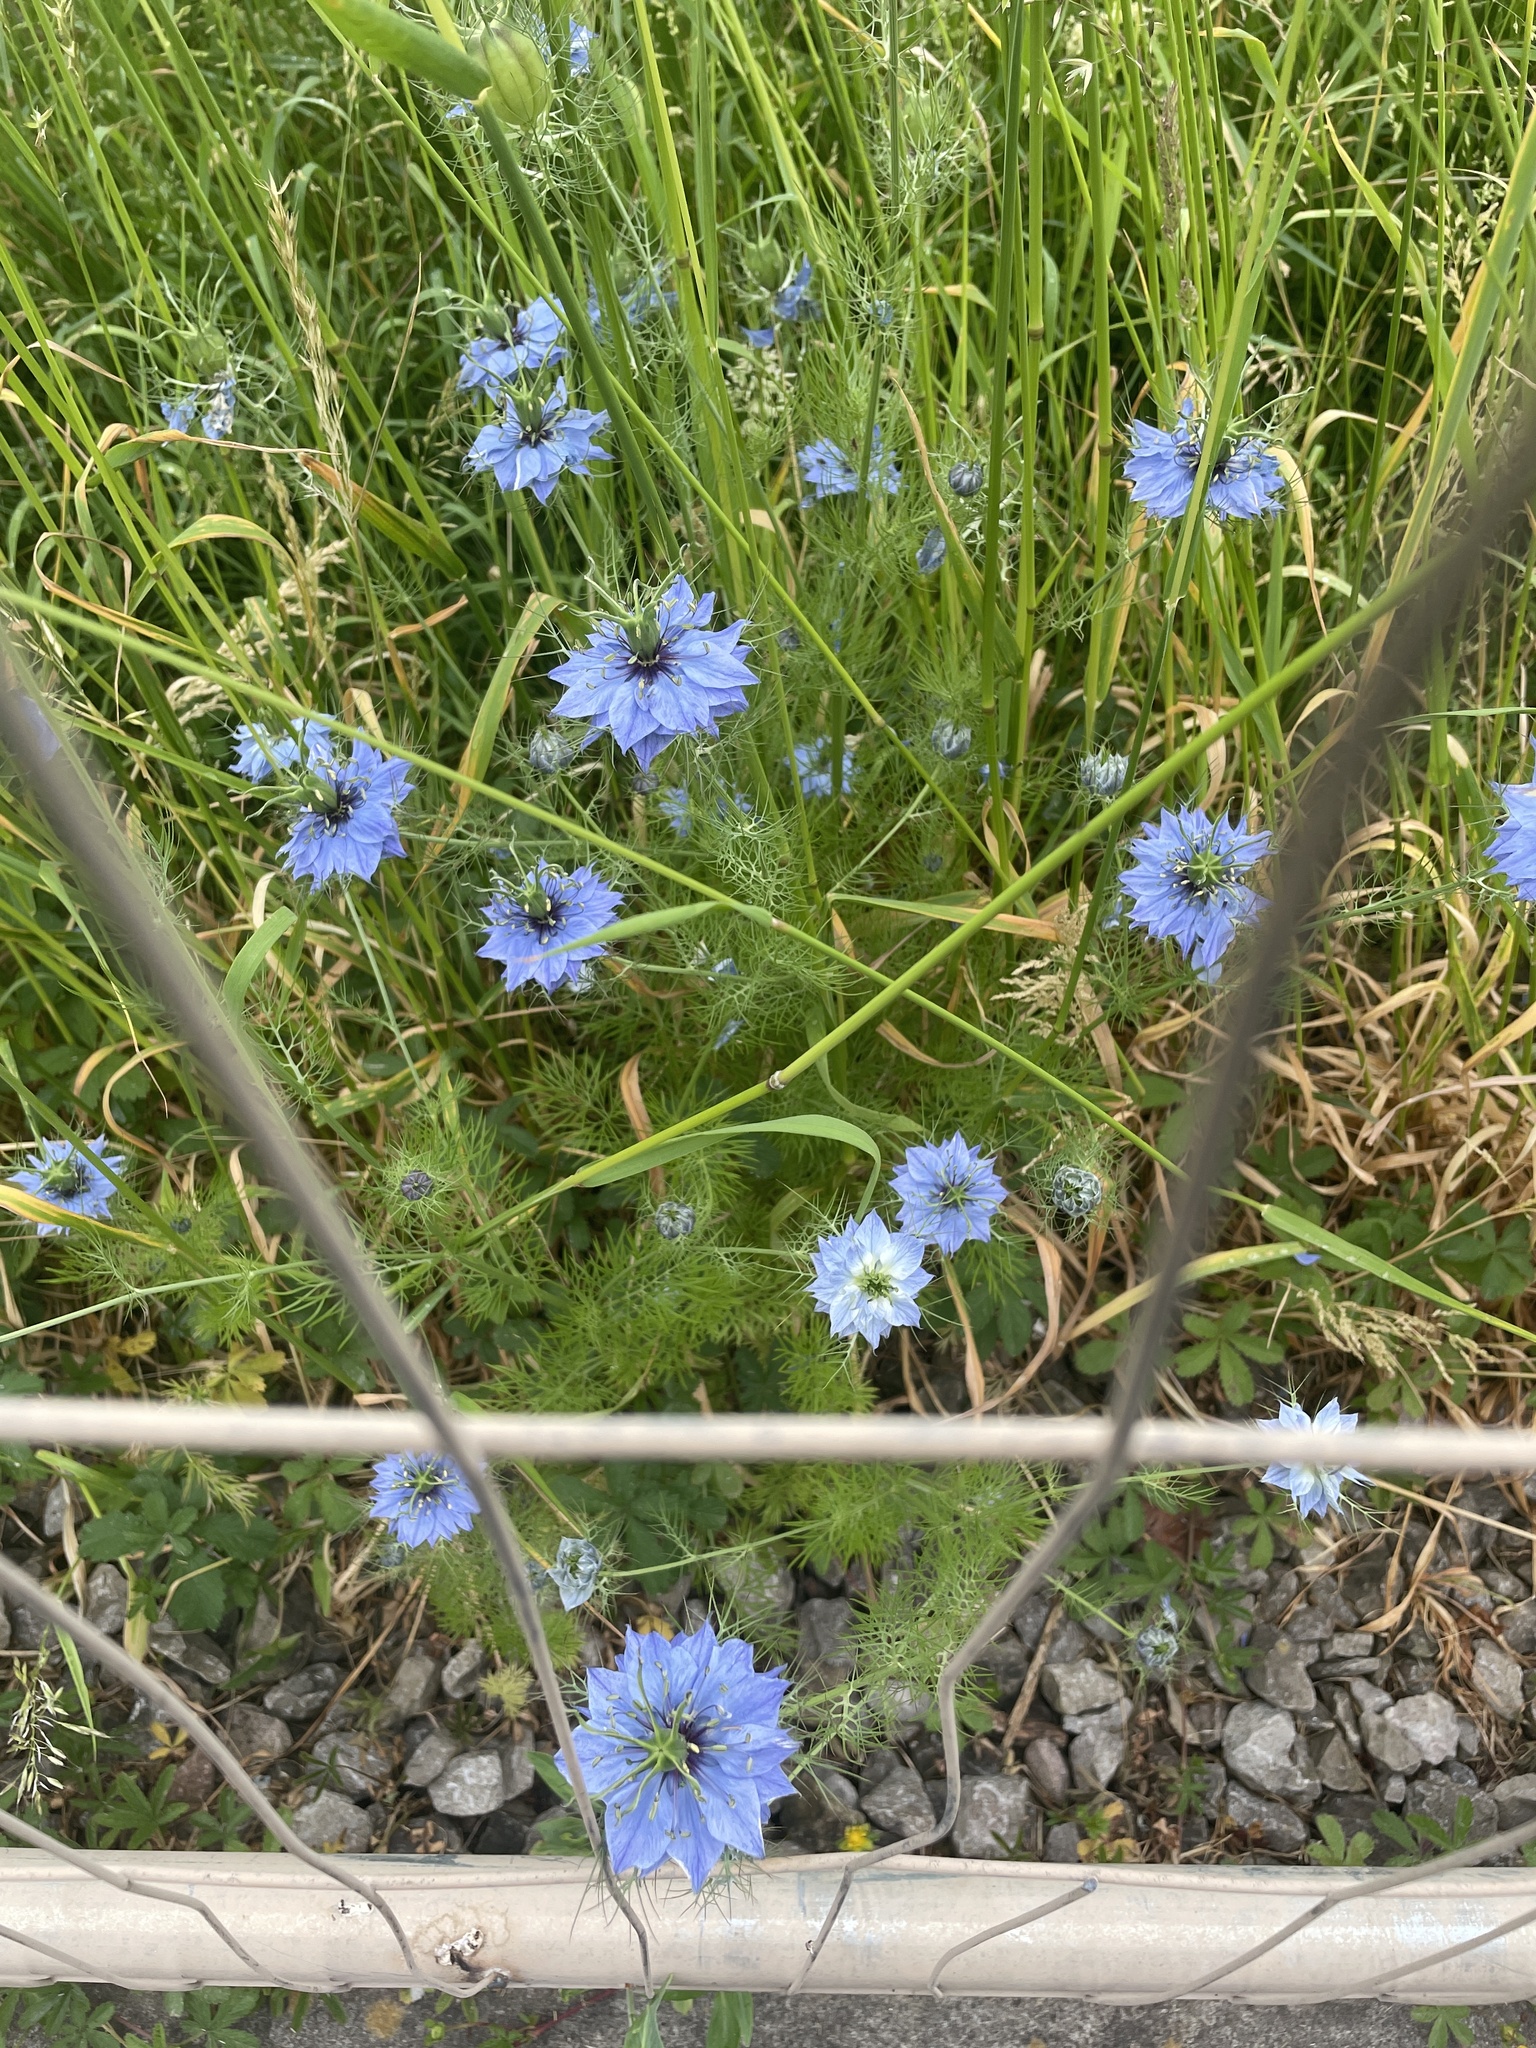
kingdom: Plantae
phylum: Tracheophyta
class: Magnoliopsida
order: Ranunculales
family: Ranunculaceae
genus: Nigella
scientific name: Nigella damascena
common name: Love-in-a-mist
